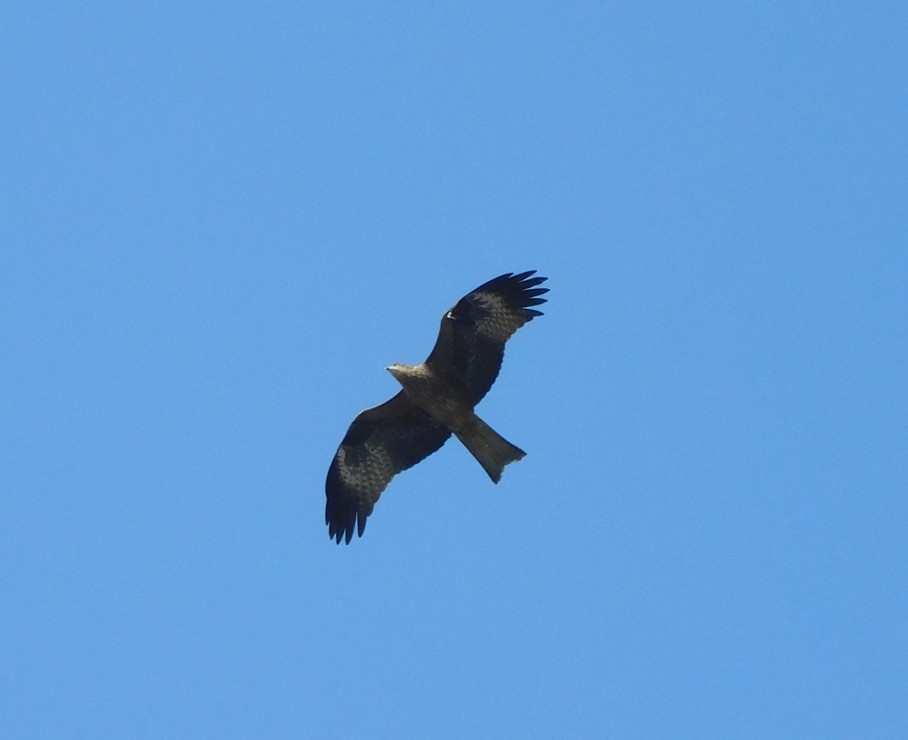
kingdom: Animalia
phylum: Chordata
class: Aves
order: Accipitriformes
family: Accipitridae
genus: Milvus
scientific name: Milvus migrans
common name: Black kite
